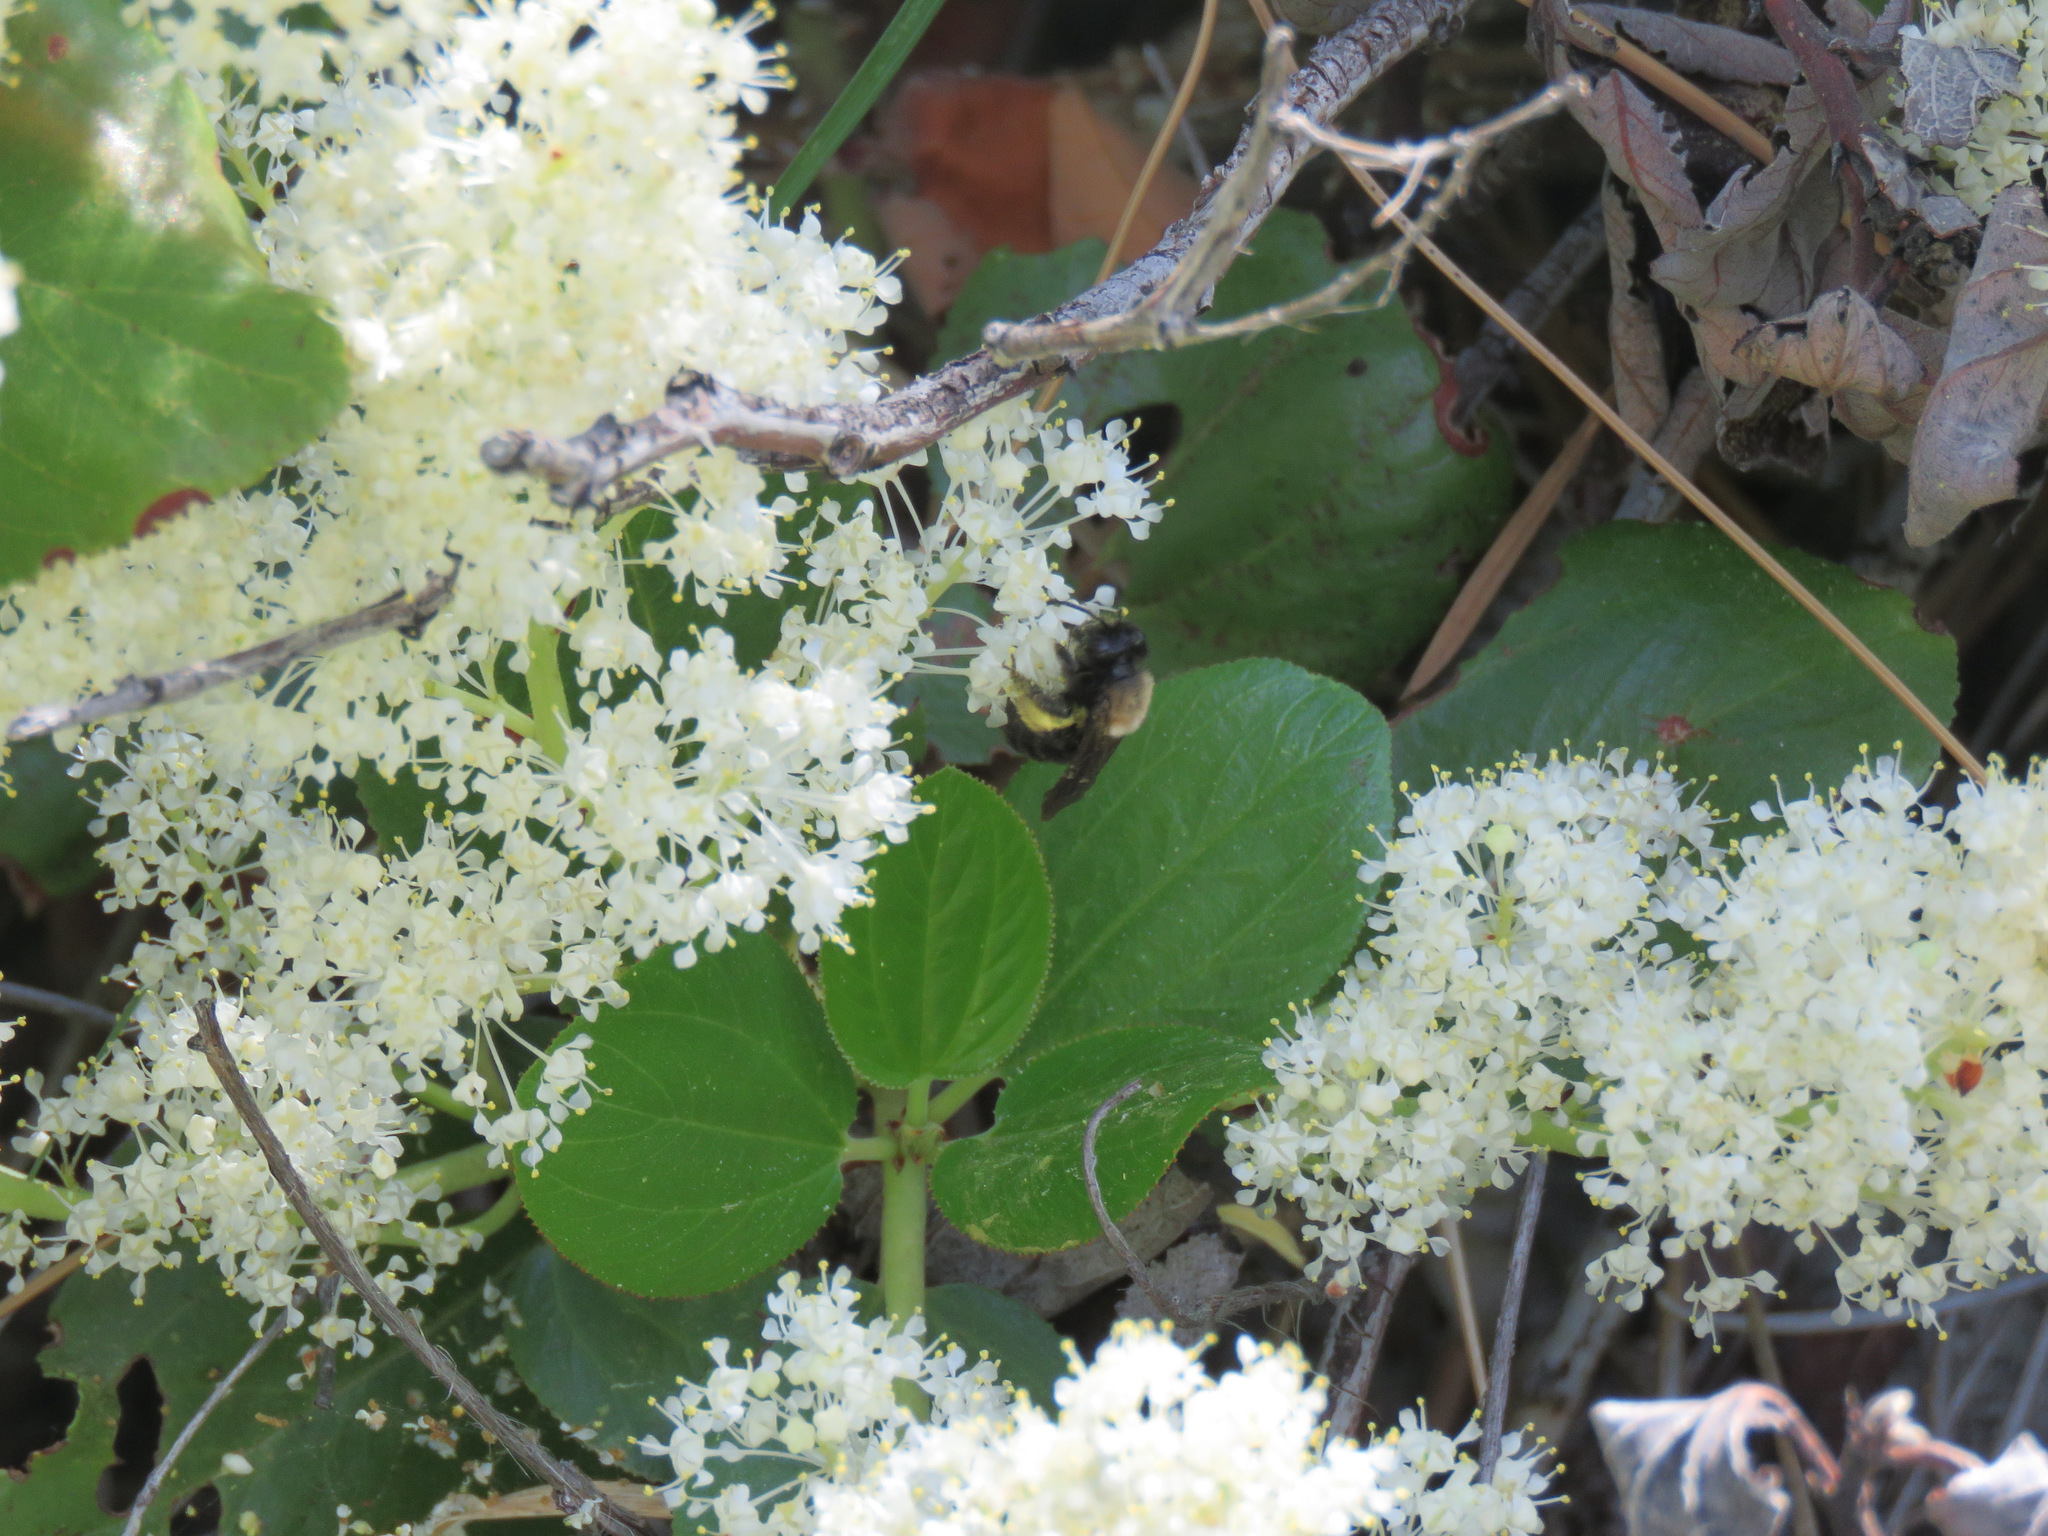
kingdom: Plantae
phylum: Tracheophyta
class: Magnoliopsida
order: Rosales
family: Rhamnaceae
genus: Ceanothus
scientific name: Ceanothus velutinus
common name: Snowbrush
